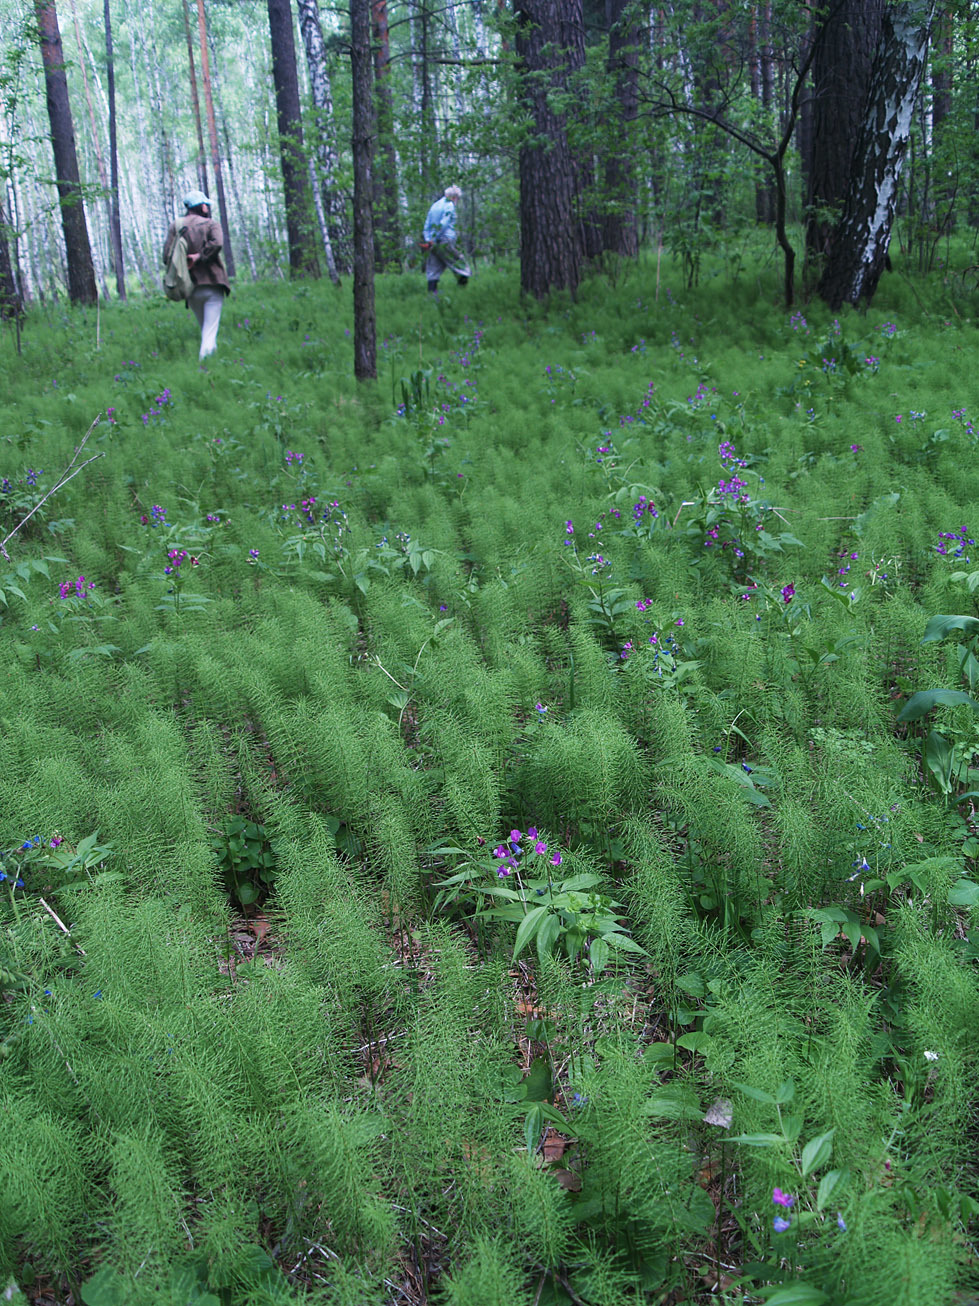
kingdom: Plantae
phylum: Tracheophyta
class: Magnoliopsida
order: Fabales
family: Fabaceae
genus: Lathyrus
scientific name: Lathyrus vernus
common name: Spring pea
